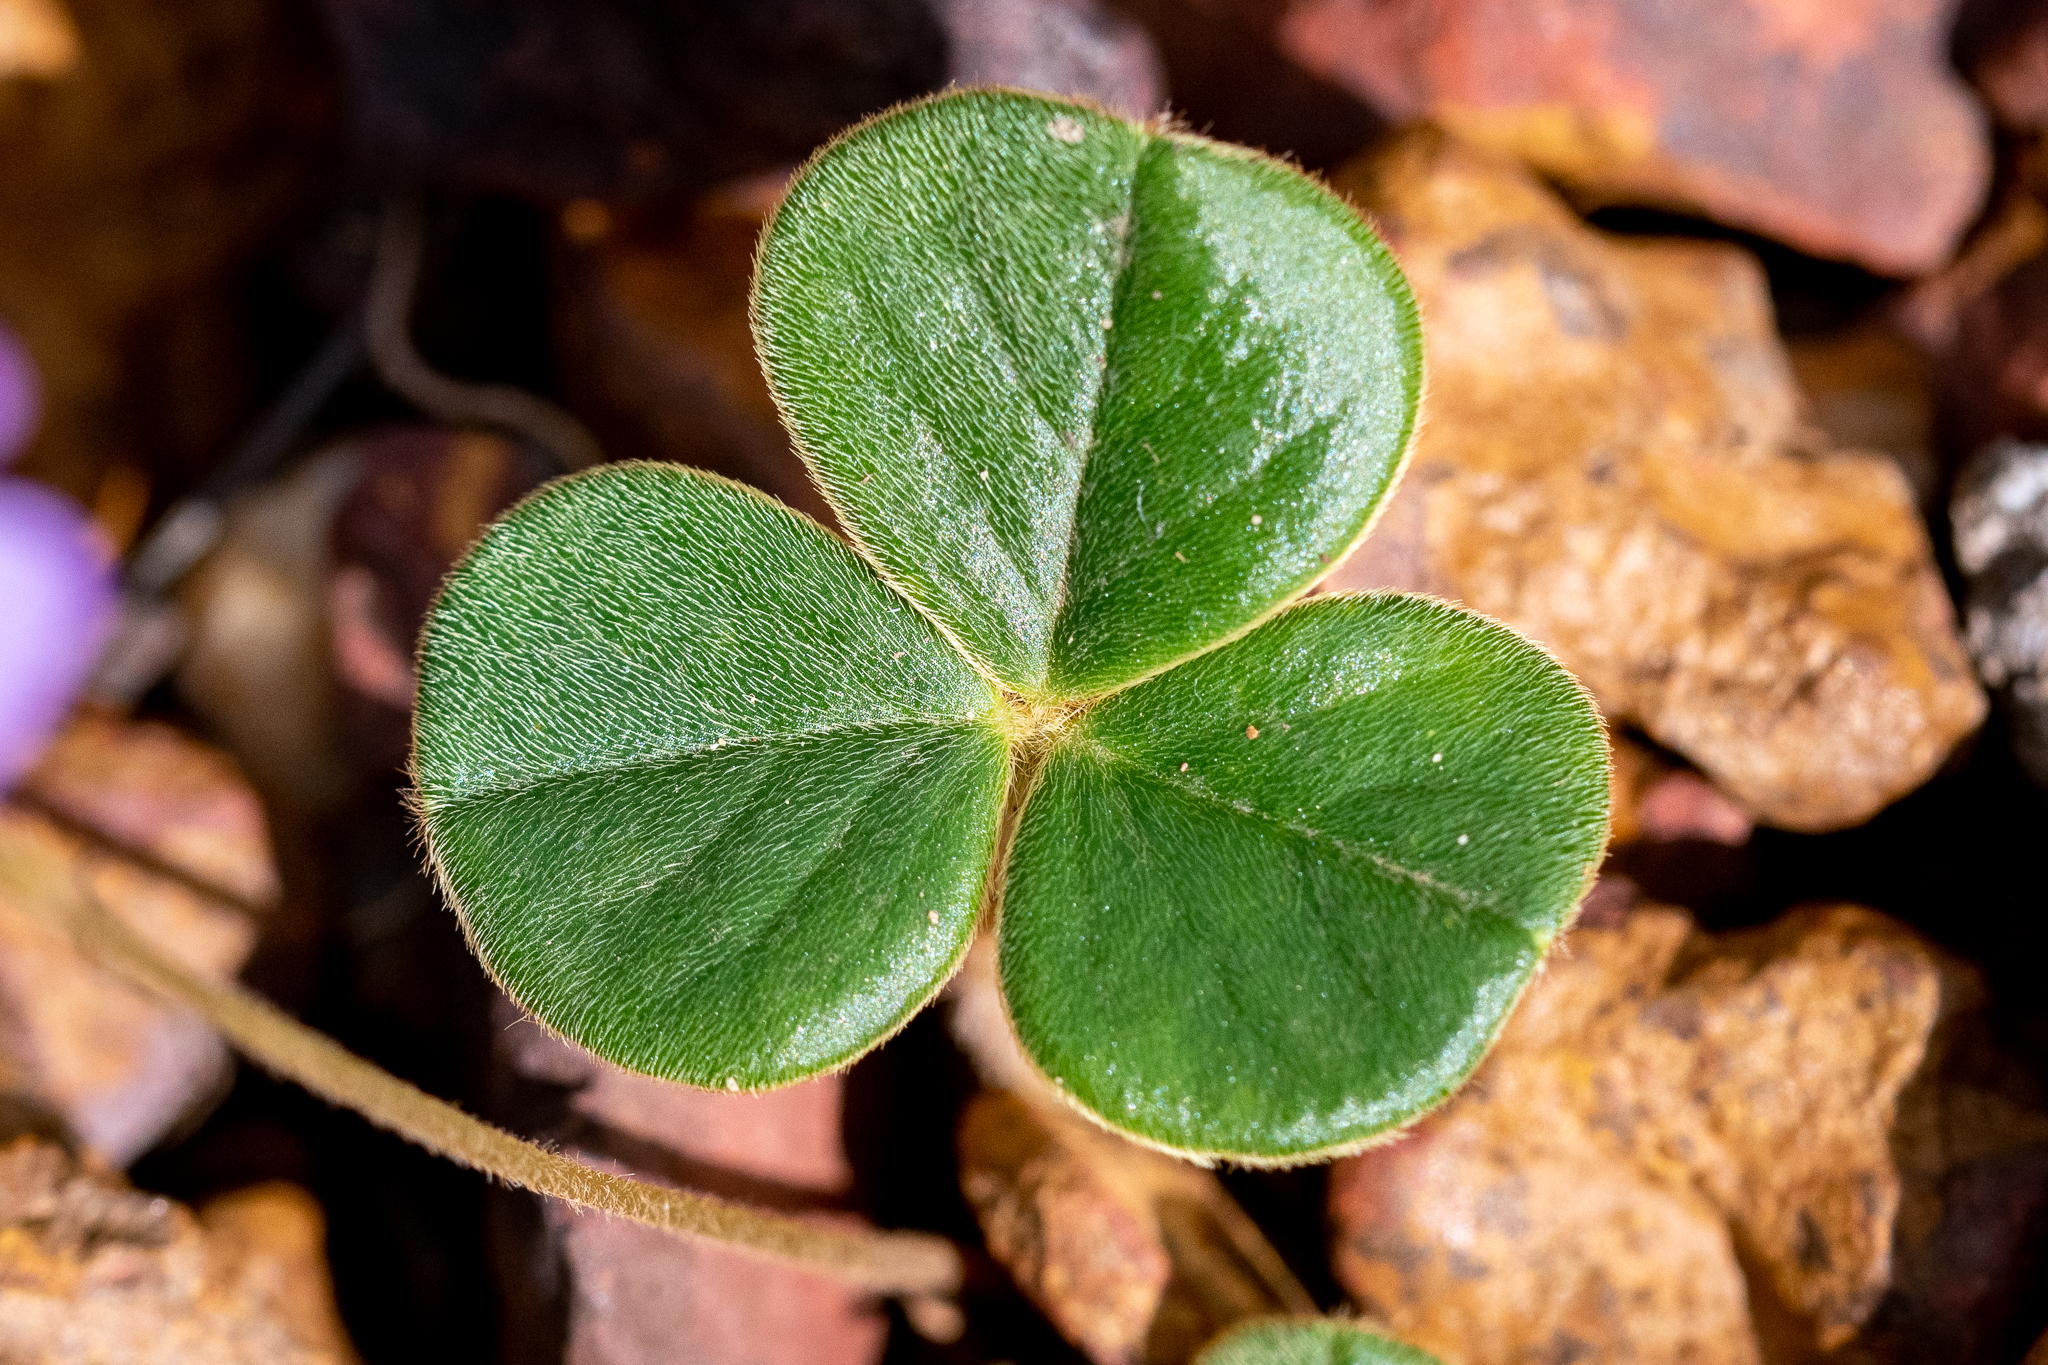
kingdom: Plantae
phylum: Tracheophyta
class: Magnoliopsida
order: Oxalidales
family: Oxalidaceae
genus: Oxalis
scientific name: Oxalis truncatula
